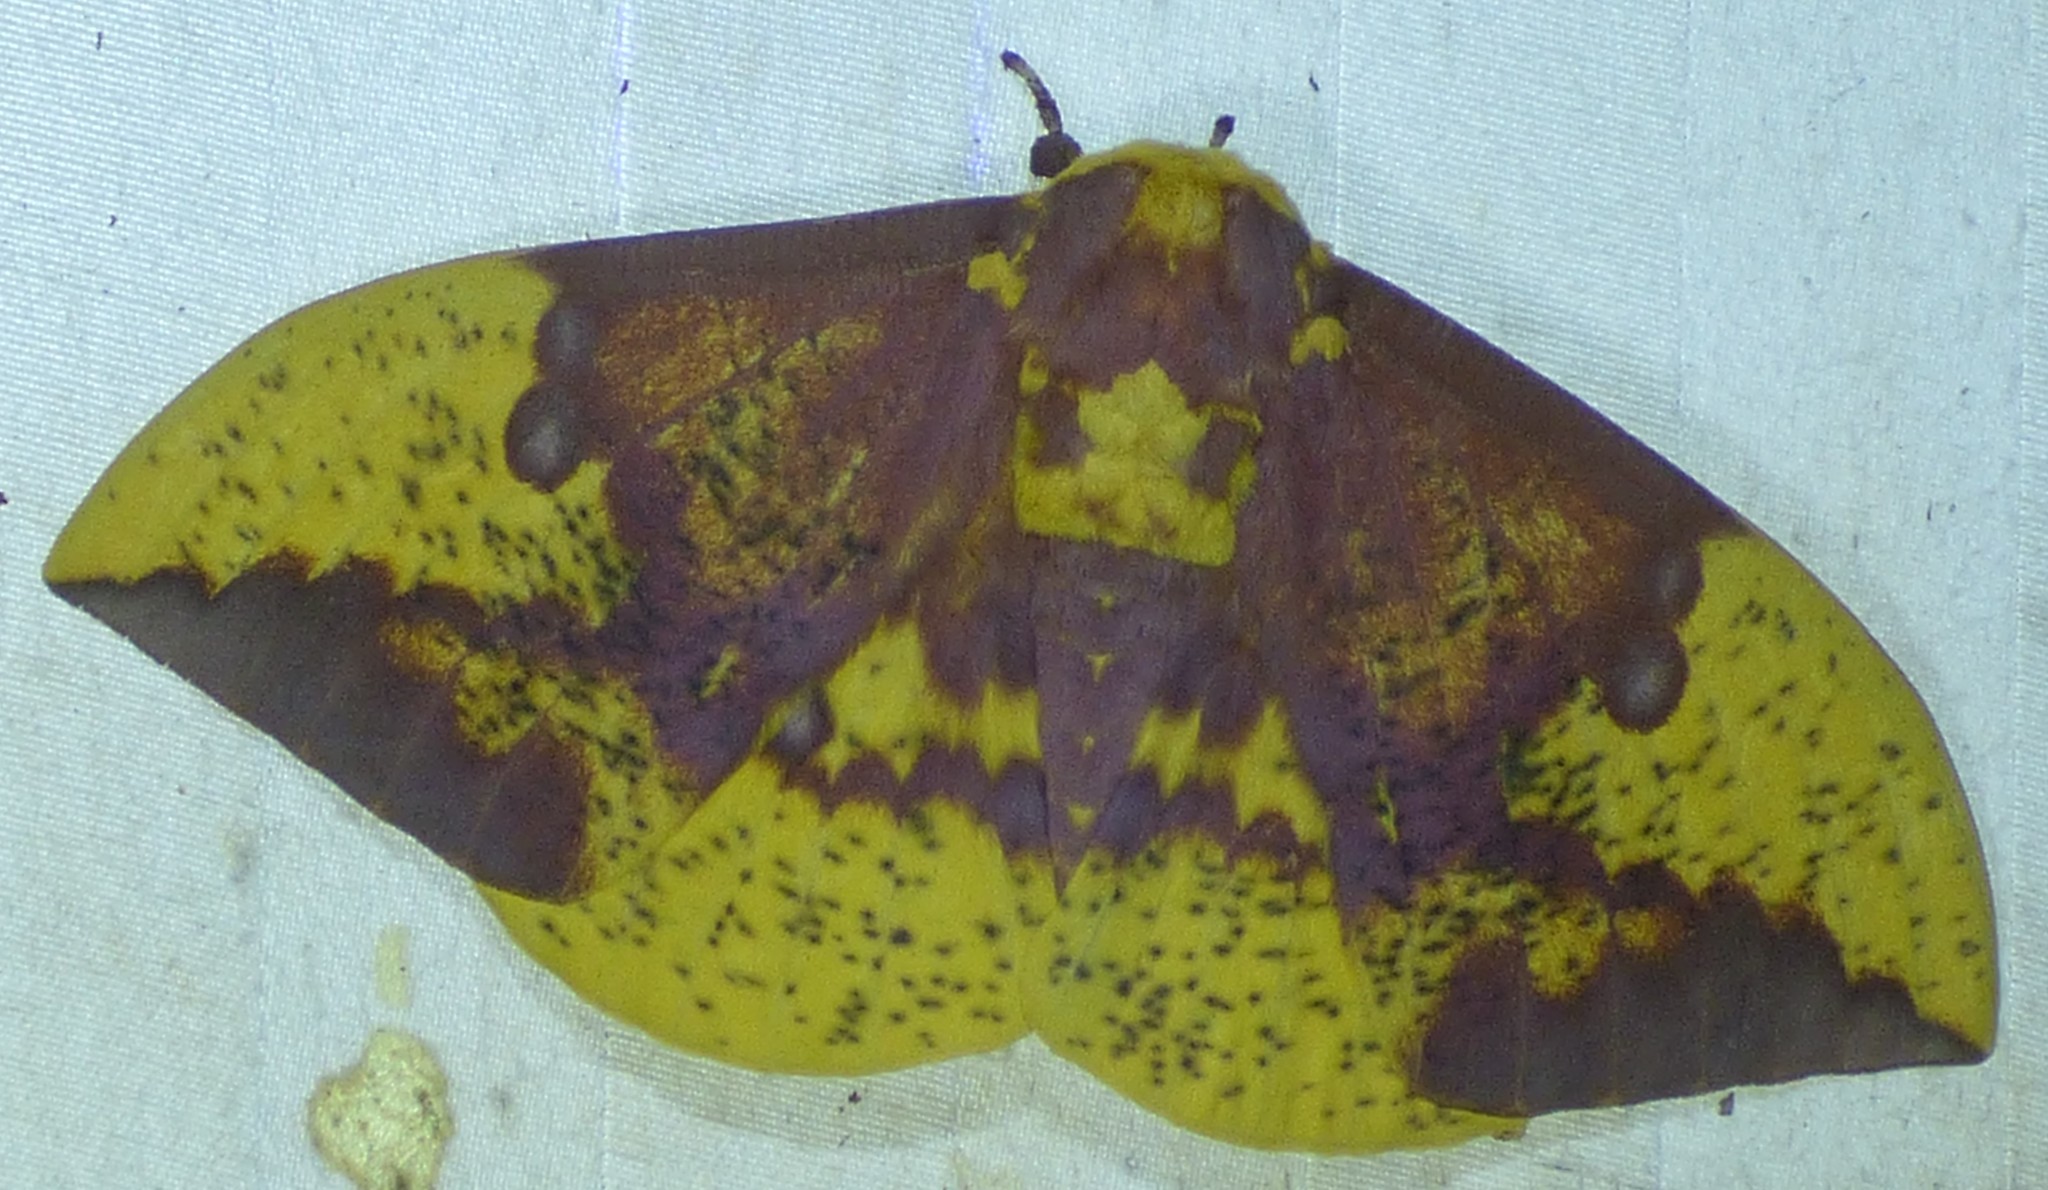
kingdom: Animalia
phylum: Arthropoda
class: Insecta
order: Lepidoptera
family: Saturniidae
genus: Eacles
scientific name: Eacles imperialis
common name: Imperial moth
